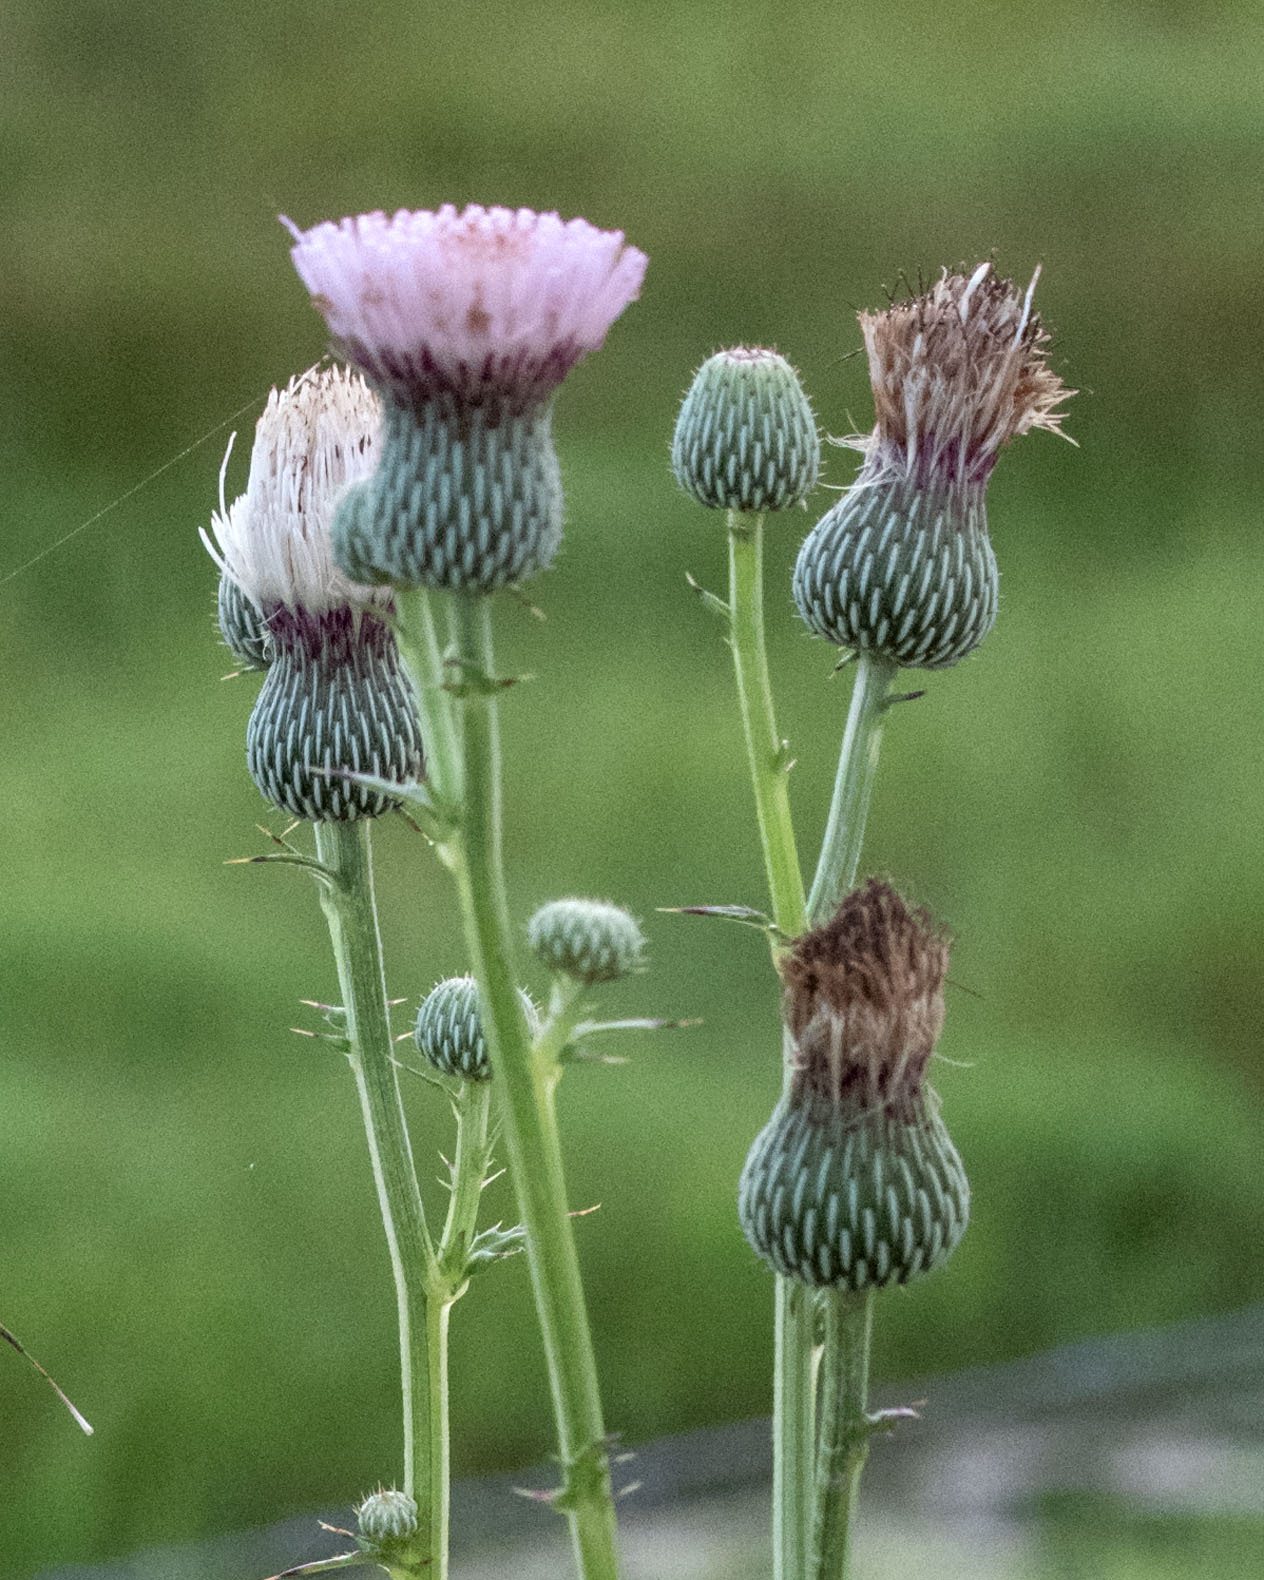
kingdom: Plantae
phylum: Tracheophyta
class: Magnoliopsida
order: Asterales
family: Asteraceae
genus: Cirsium
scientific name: Cirsium nuttalii
